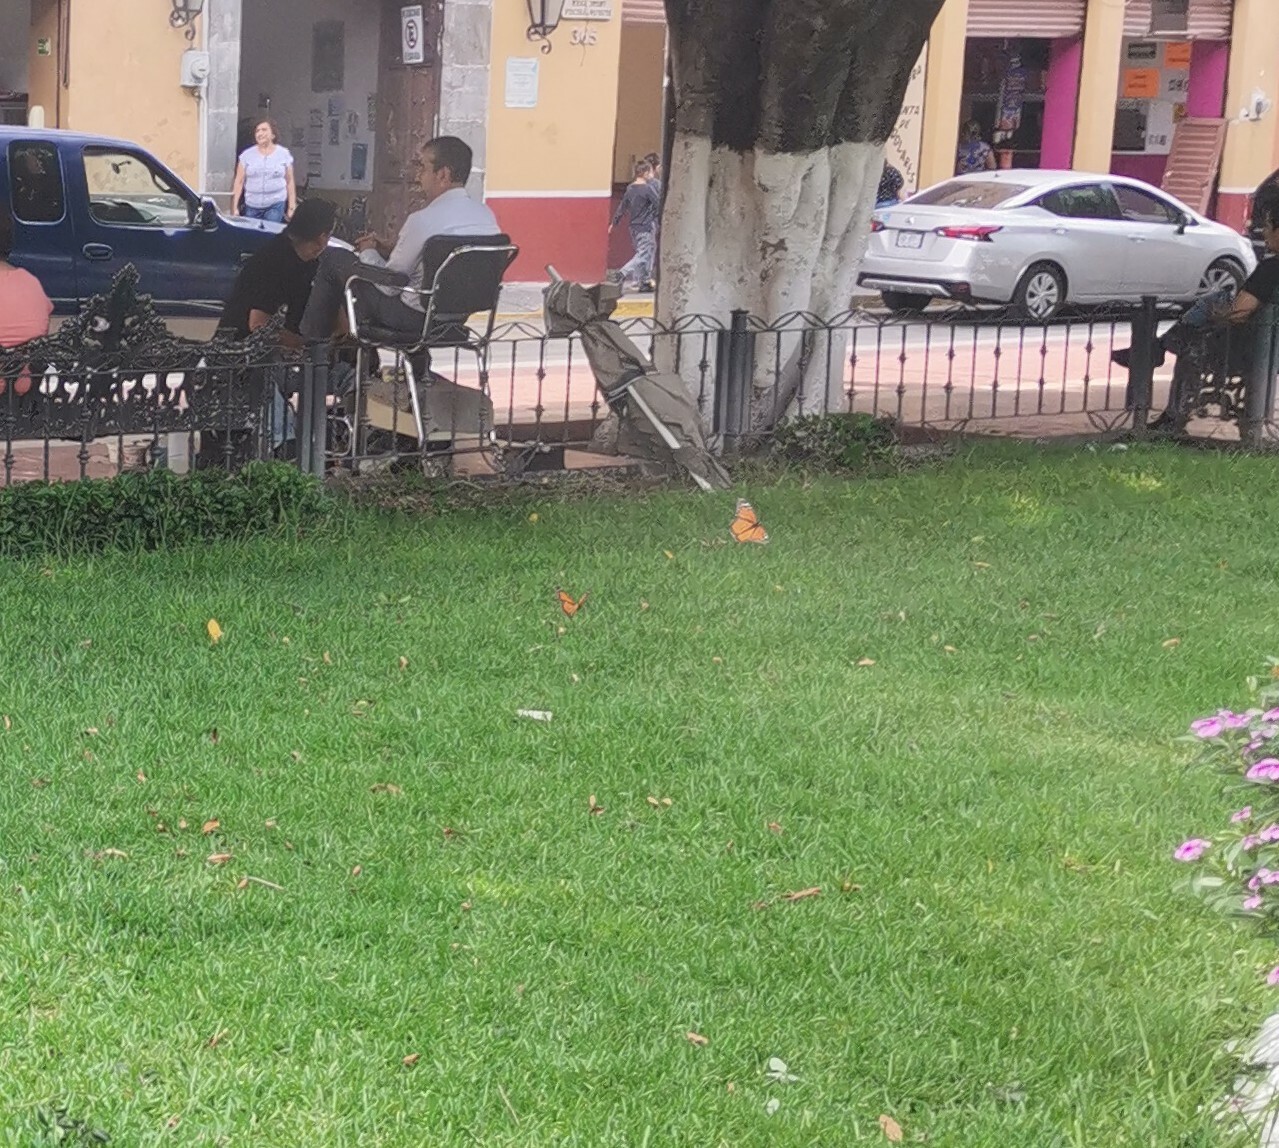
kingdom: Animalia
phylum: Arthropoda
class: Insecta
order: Lepidoptera
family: Nymphalidae
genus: Danaus
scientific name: Danaus plexippus
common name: Monarch
